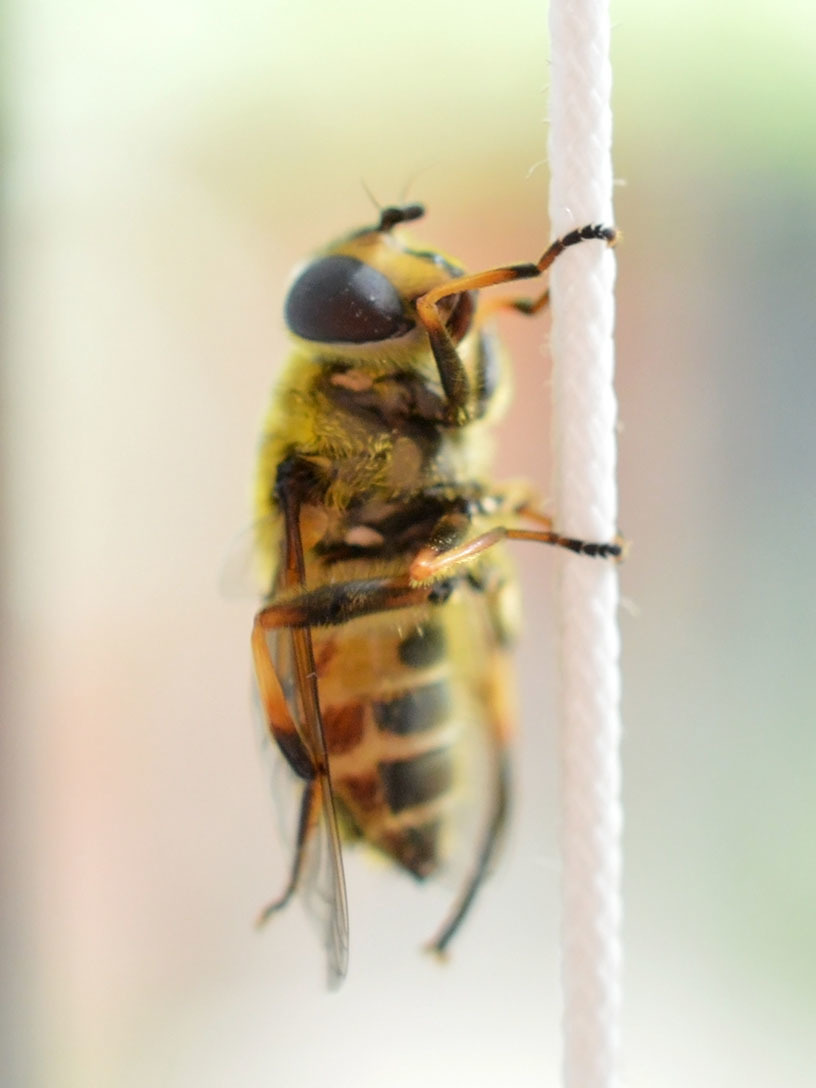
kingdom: Animalia
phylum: Arthropoda
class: Insecta
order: Diptera
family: Syrphidae
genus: Myathropa
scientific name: Myathropa florea
